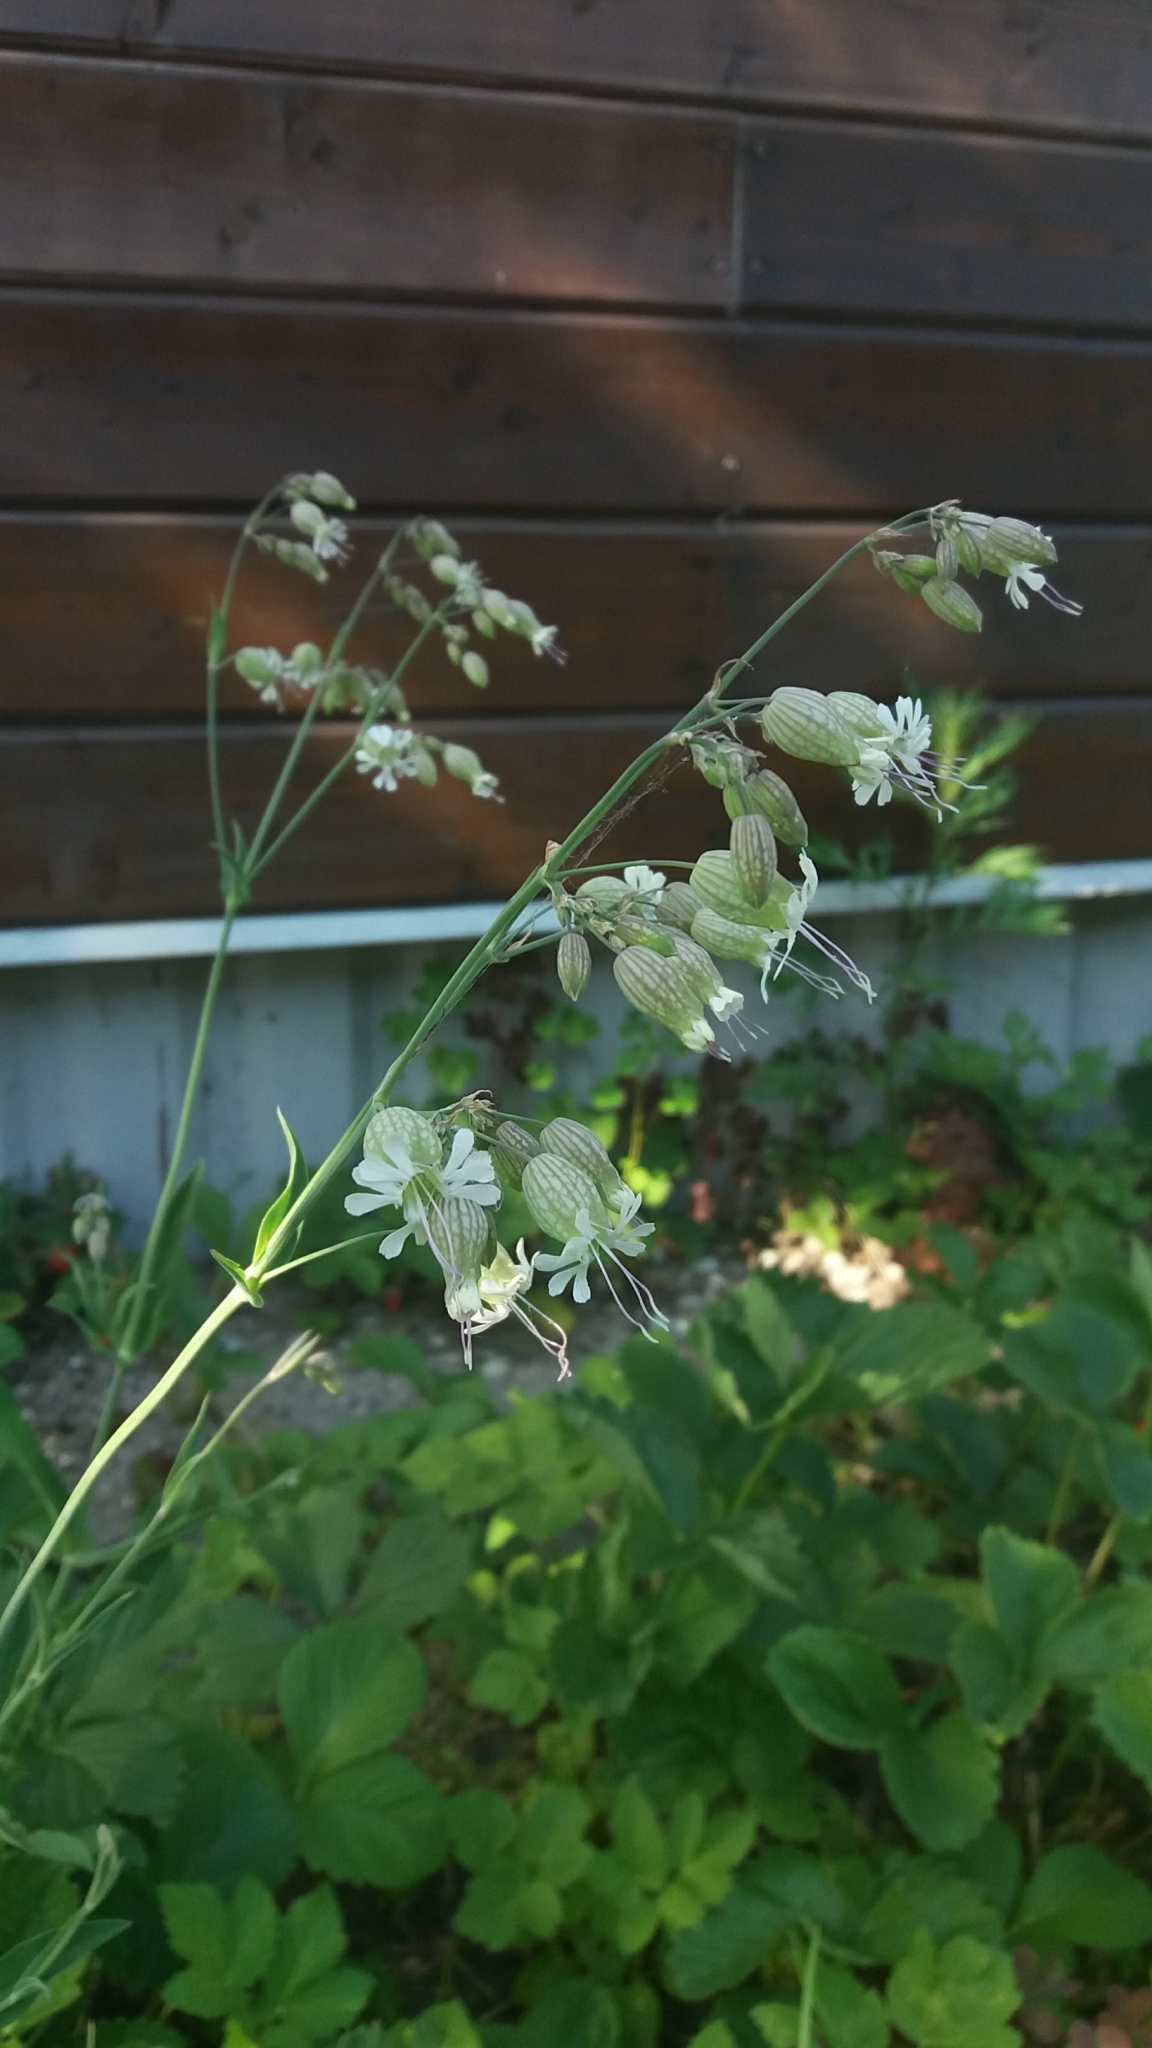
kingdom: Plantae
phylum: Tracheophyta
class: Magnoliopsida
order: Caryophyllales
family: Caryophyllaceae
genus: Silene
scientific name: Silene vulgaris
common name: Bladder campion
